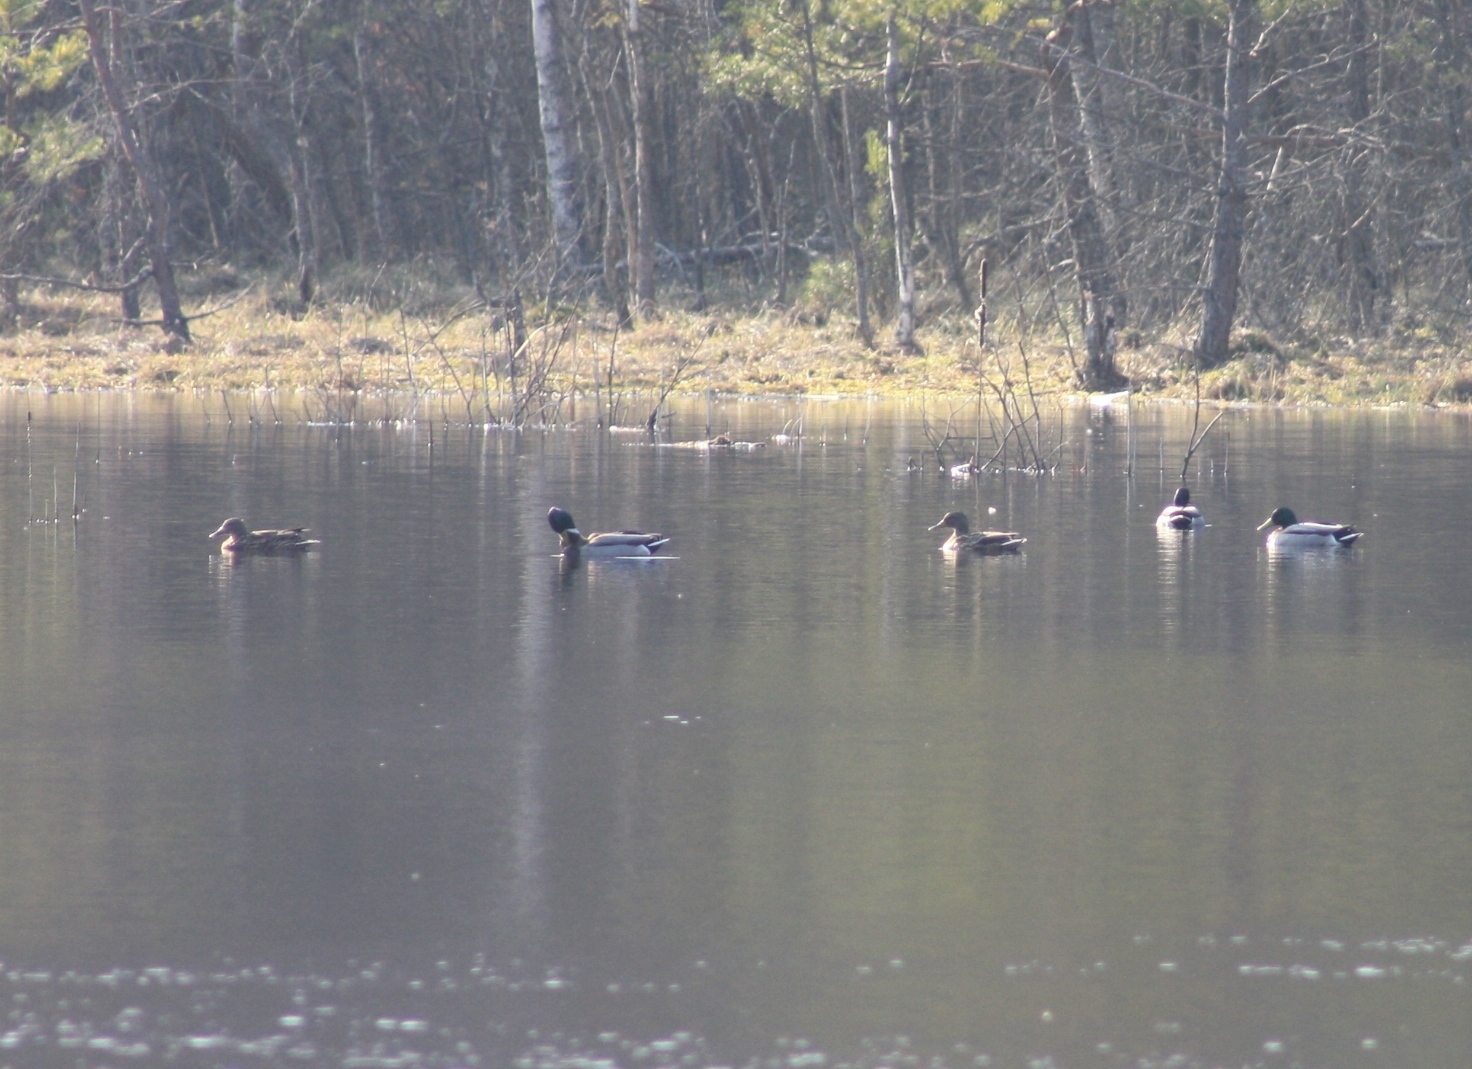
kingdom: Animalia
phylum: Chordata
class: Aves
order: Anseriformes
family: Anatidae
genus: Anas
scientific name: Anas platyrhynchos
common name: Mallard
